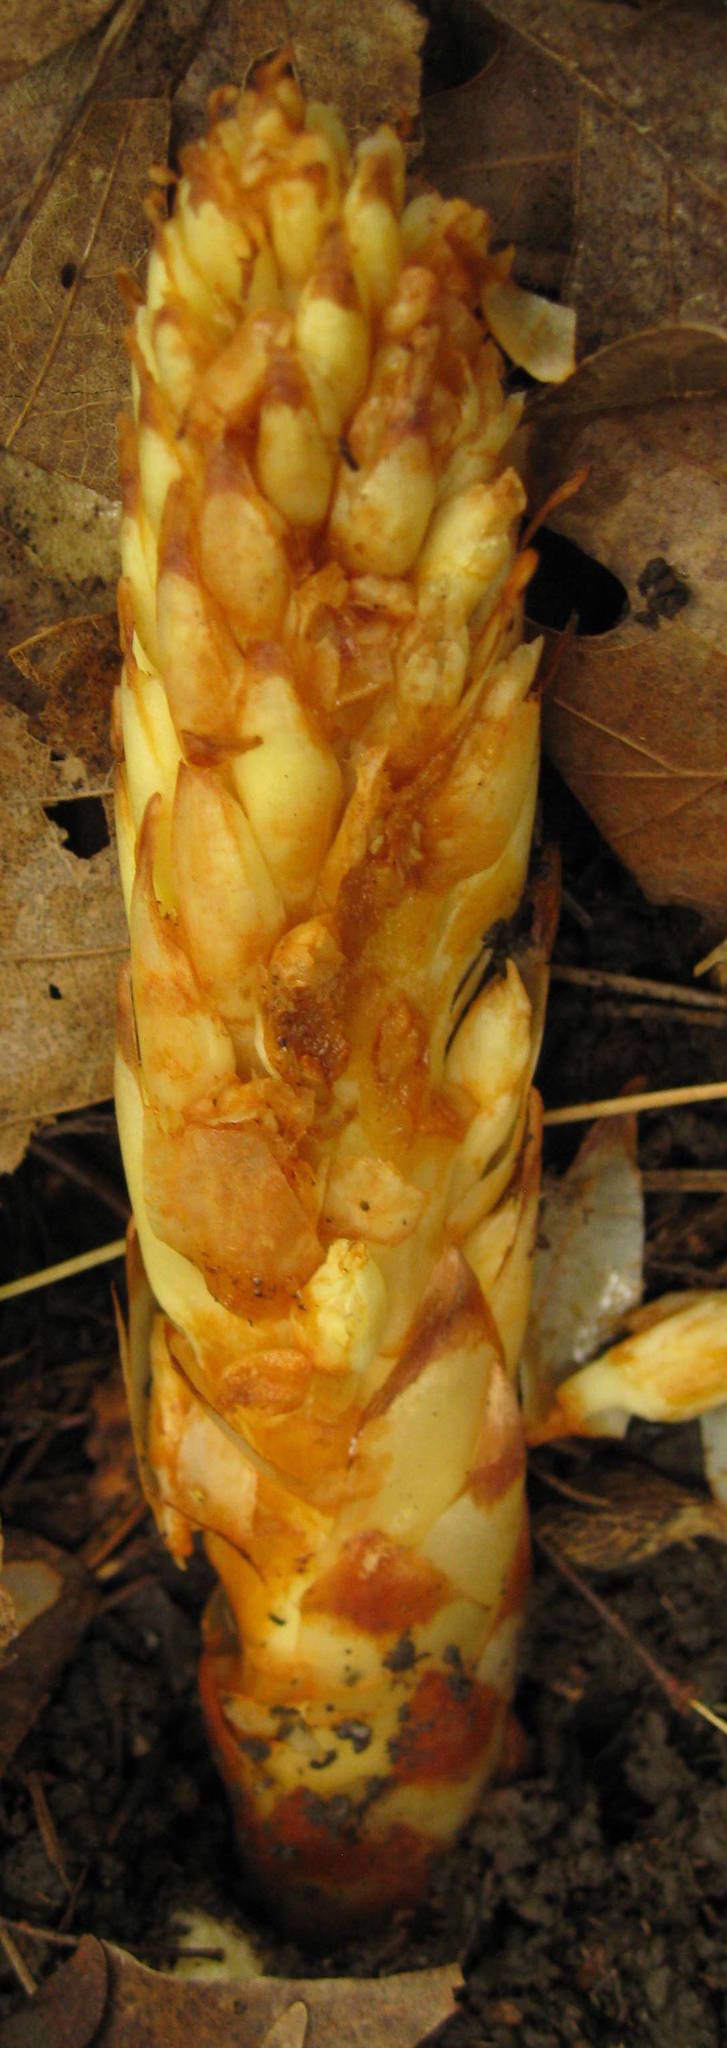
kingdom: Plantae
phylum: Tracheophyta
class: Magnoliopsida
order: Lamiales
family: Orobanchaceae
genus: Conopholis
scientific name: Conopholis americana
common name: American cancer-root
